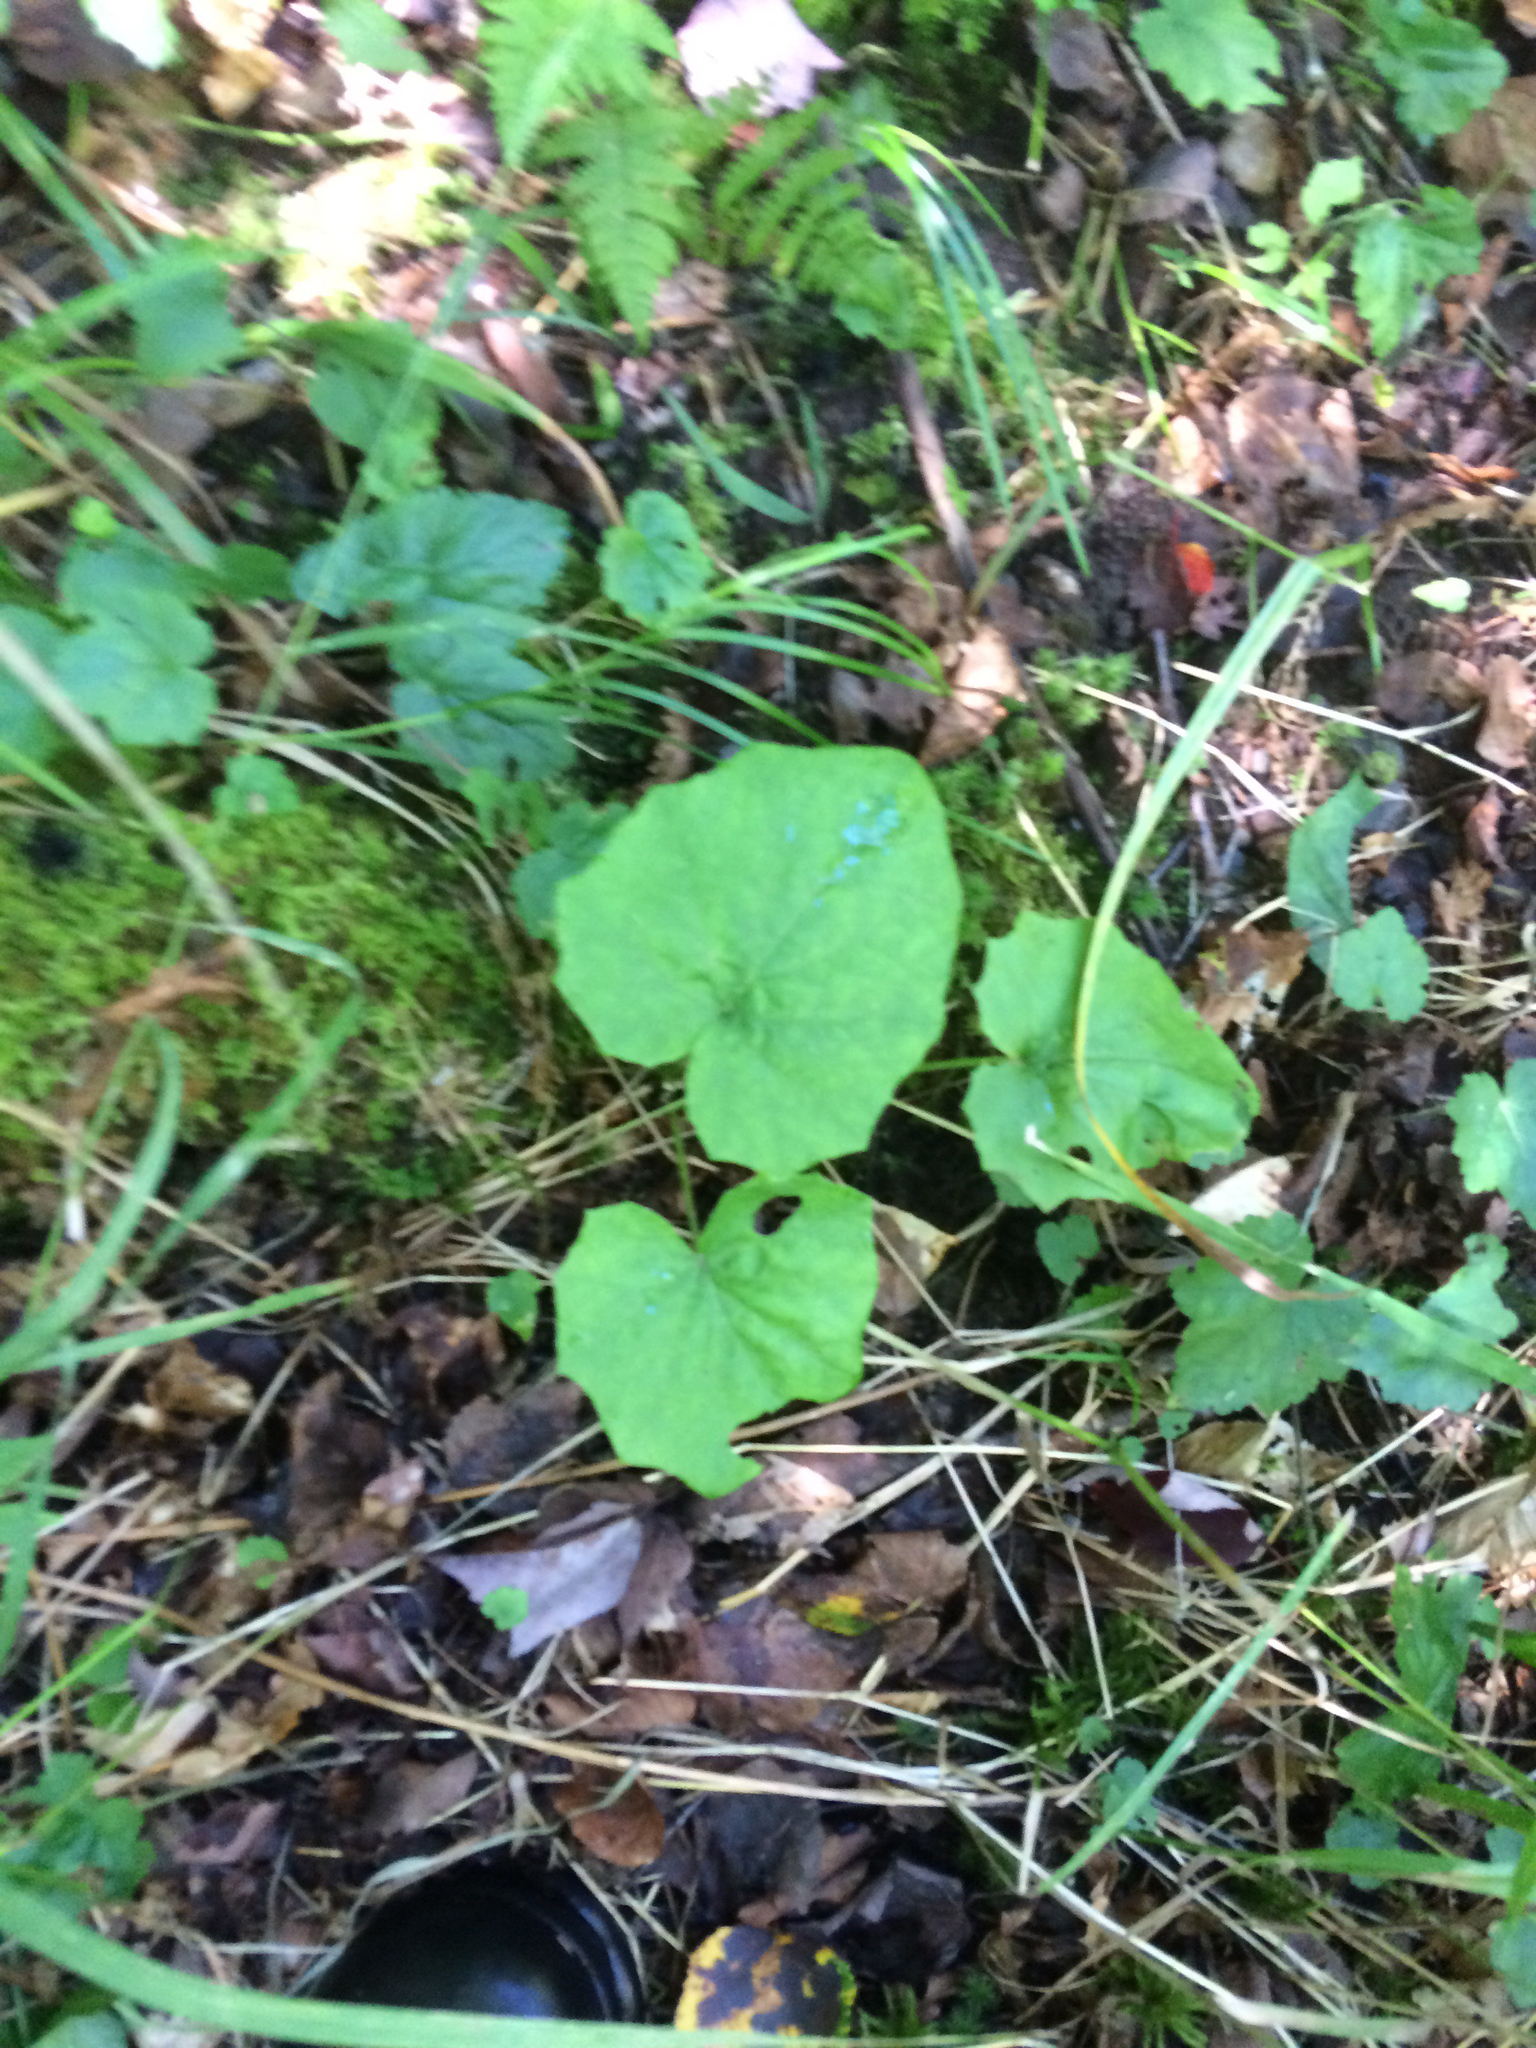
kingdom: Plantae
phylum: Tracheophyta
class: Magnoliopsida
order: Asterales
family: Asteraceae
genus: Tussilago
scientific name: Tussilago farfara
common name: Coltsfoot
